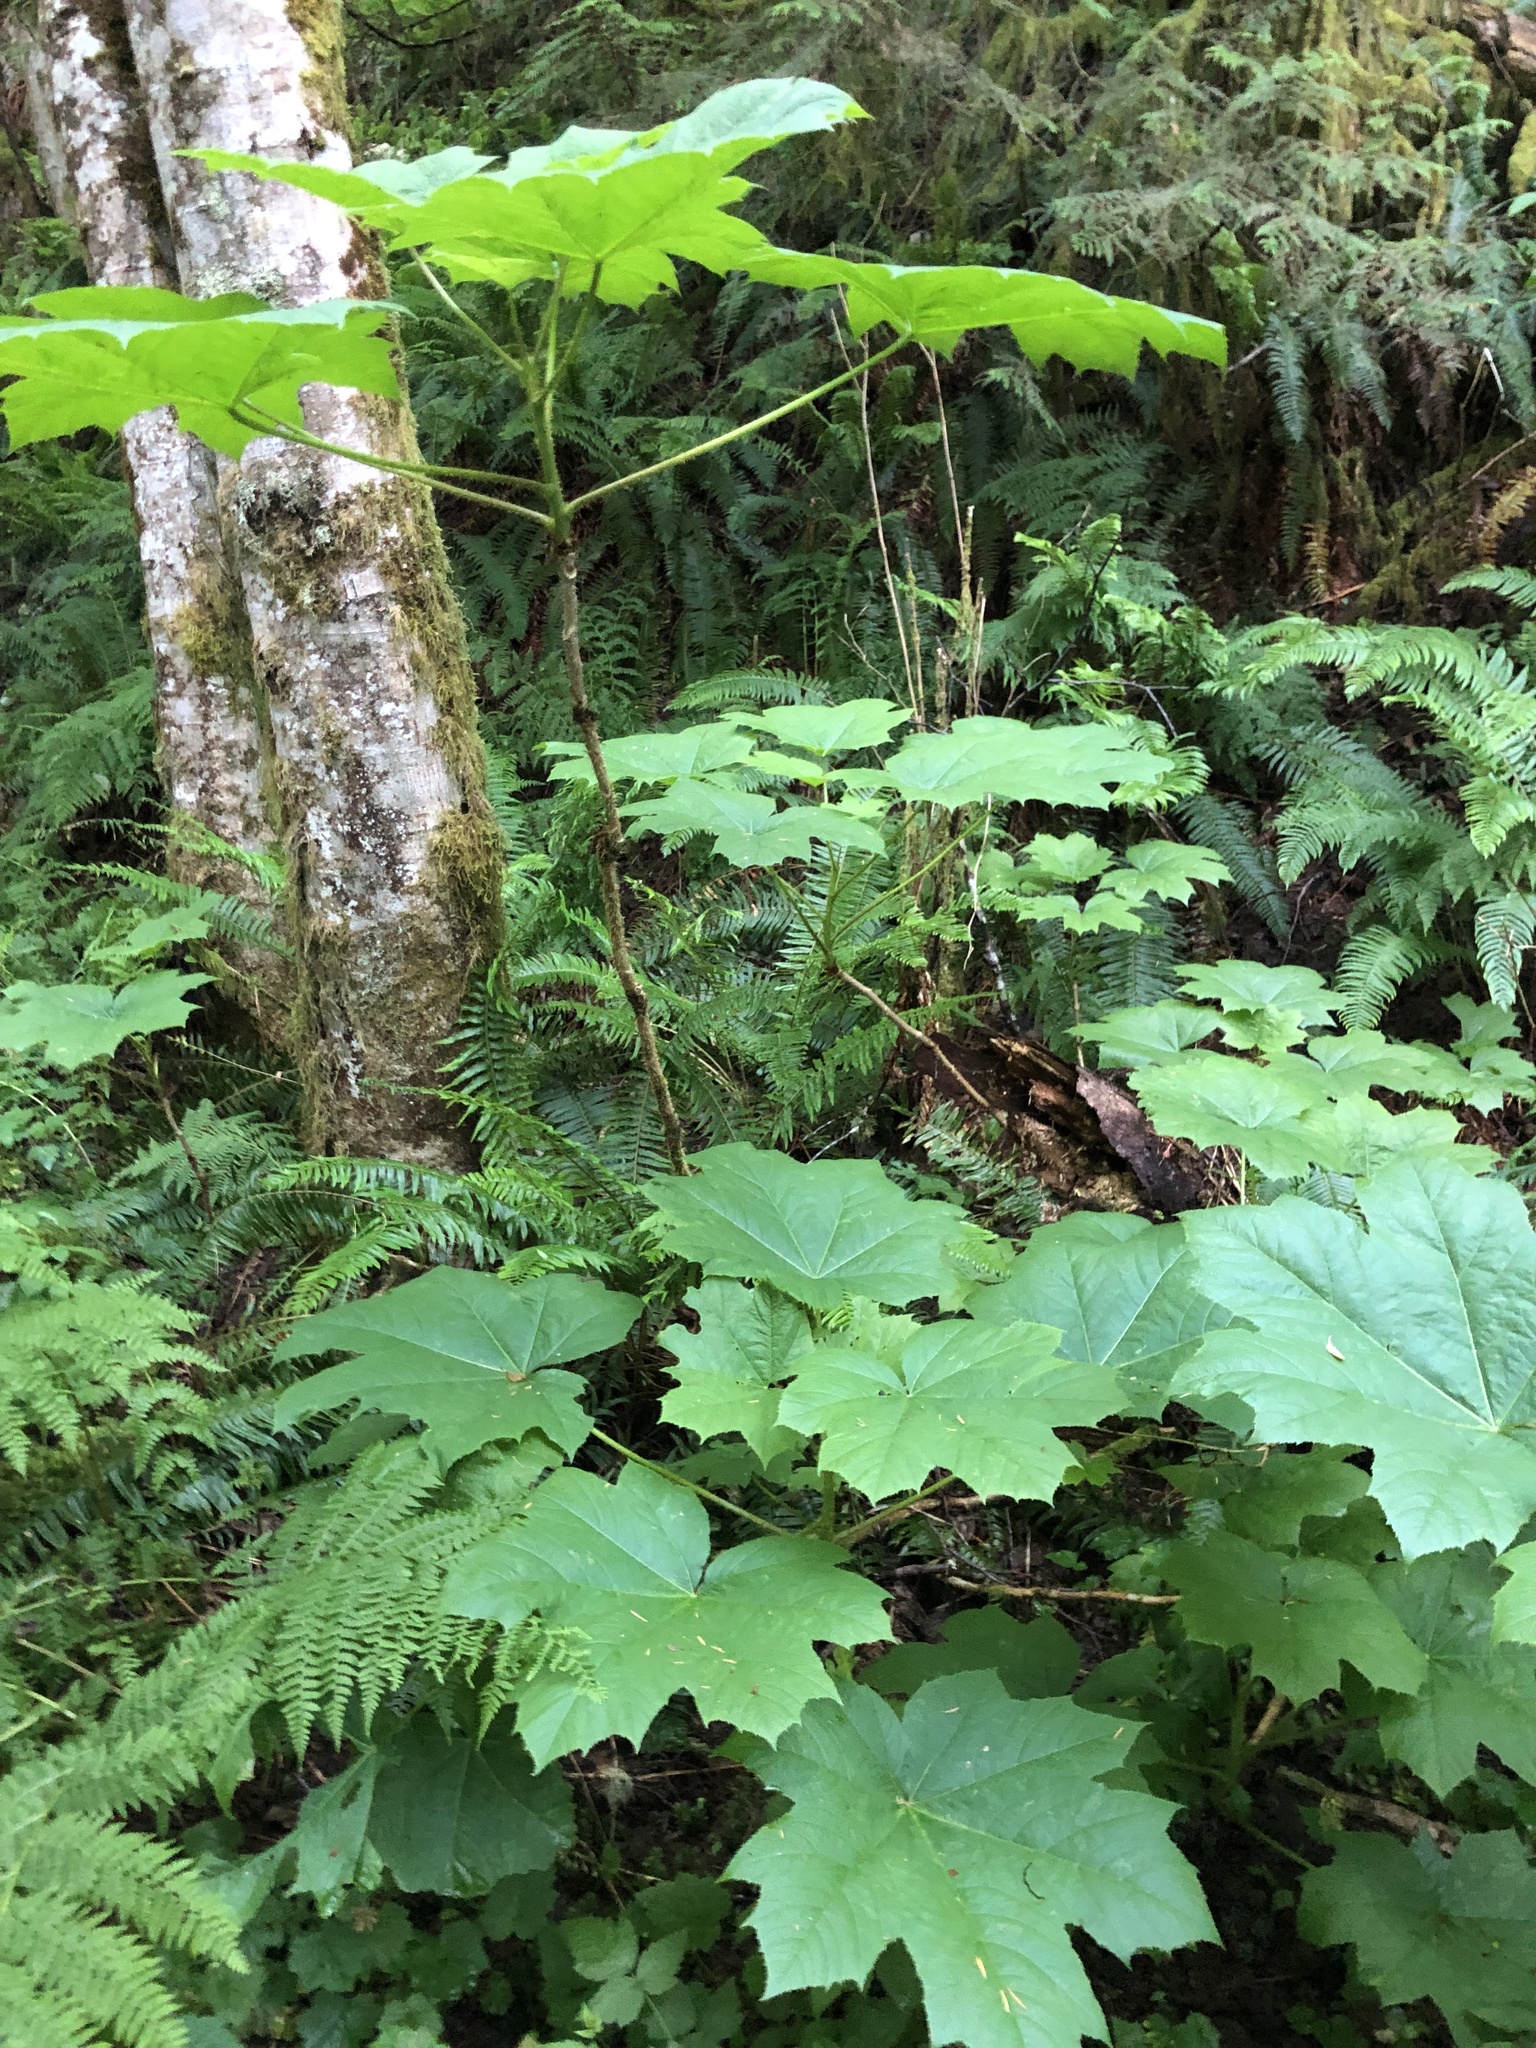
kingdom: Plantae
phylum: Tracheophyta
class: Magnoliopsida
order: Apiales
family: Araliaceae
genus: Oplopanax
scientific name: Oplopanax horridus
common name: Devil's walking-stick
